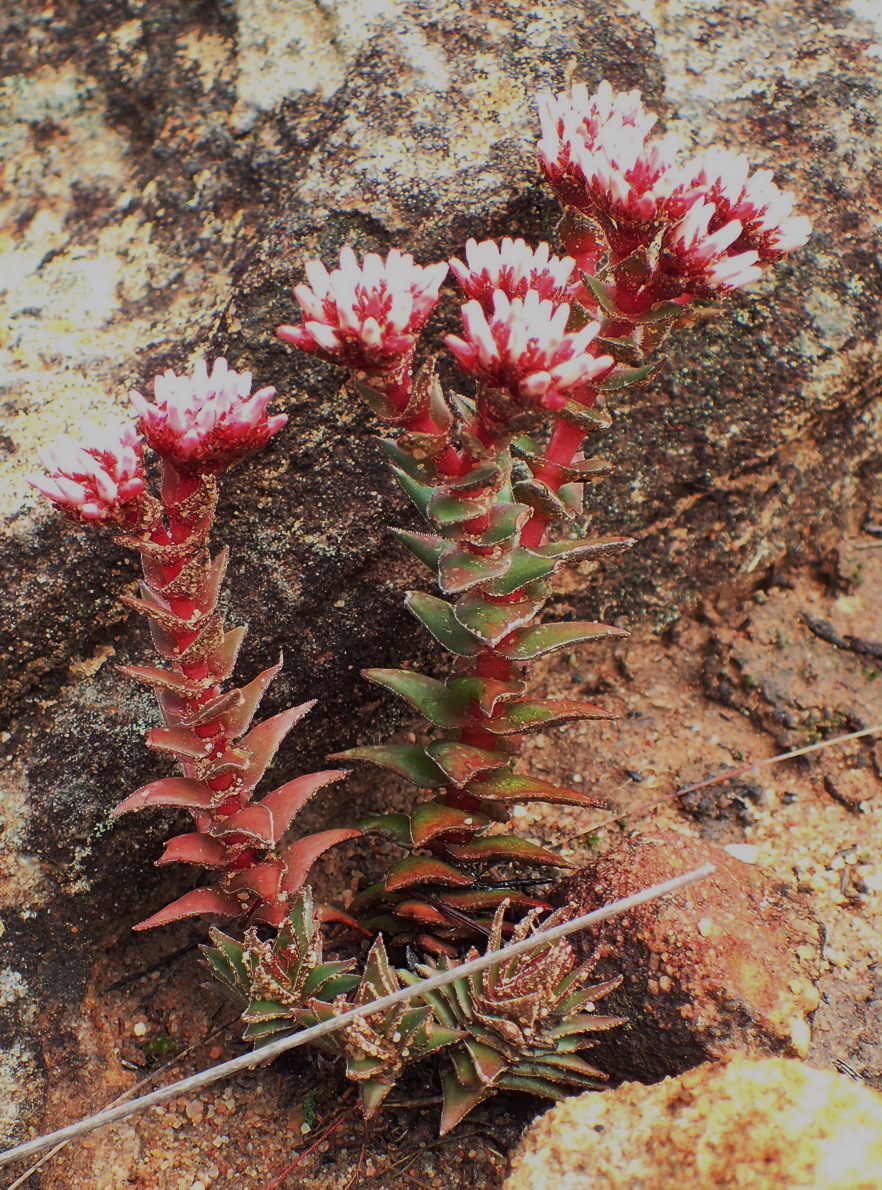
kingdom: Plantae
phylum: Tracheophyta
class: Magnoliopsida
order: Saxifragales
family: Crassulaceae
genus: Crassula
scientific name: Crassula alpestris
